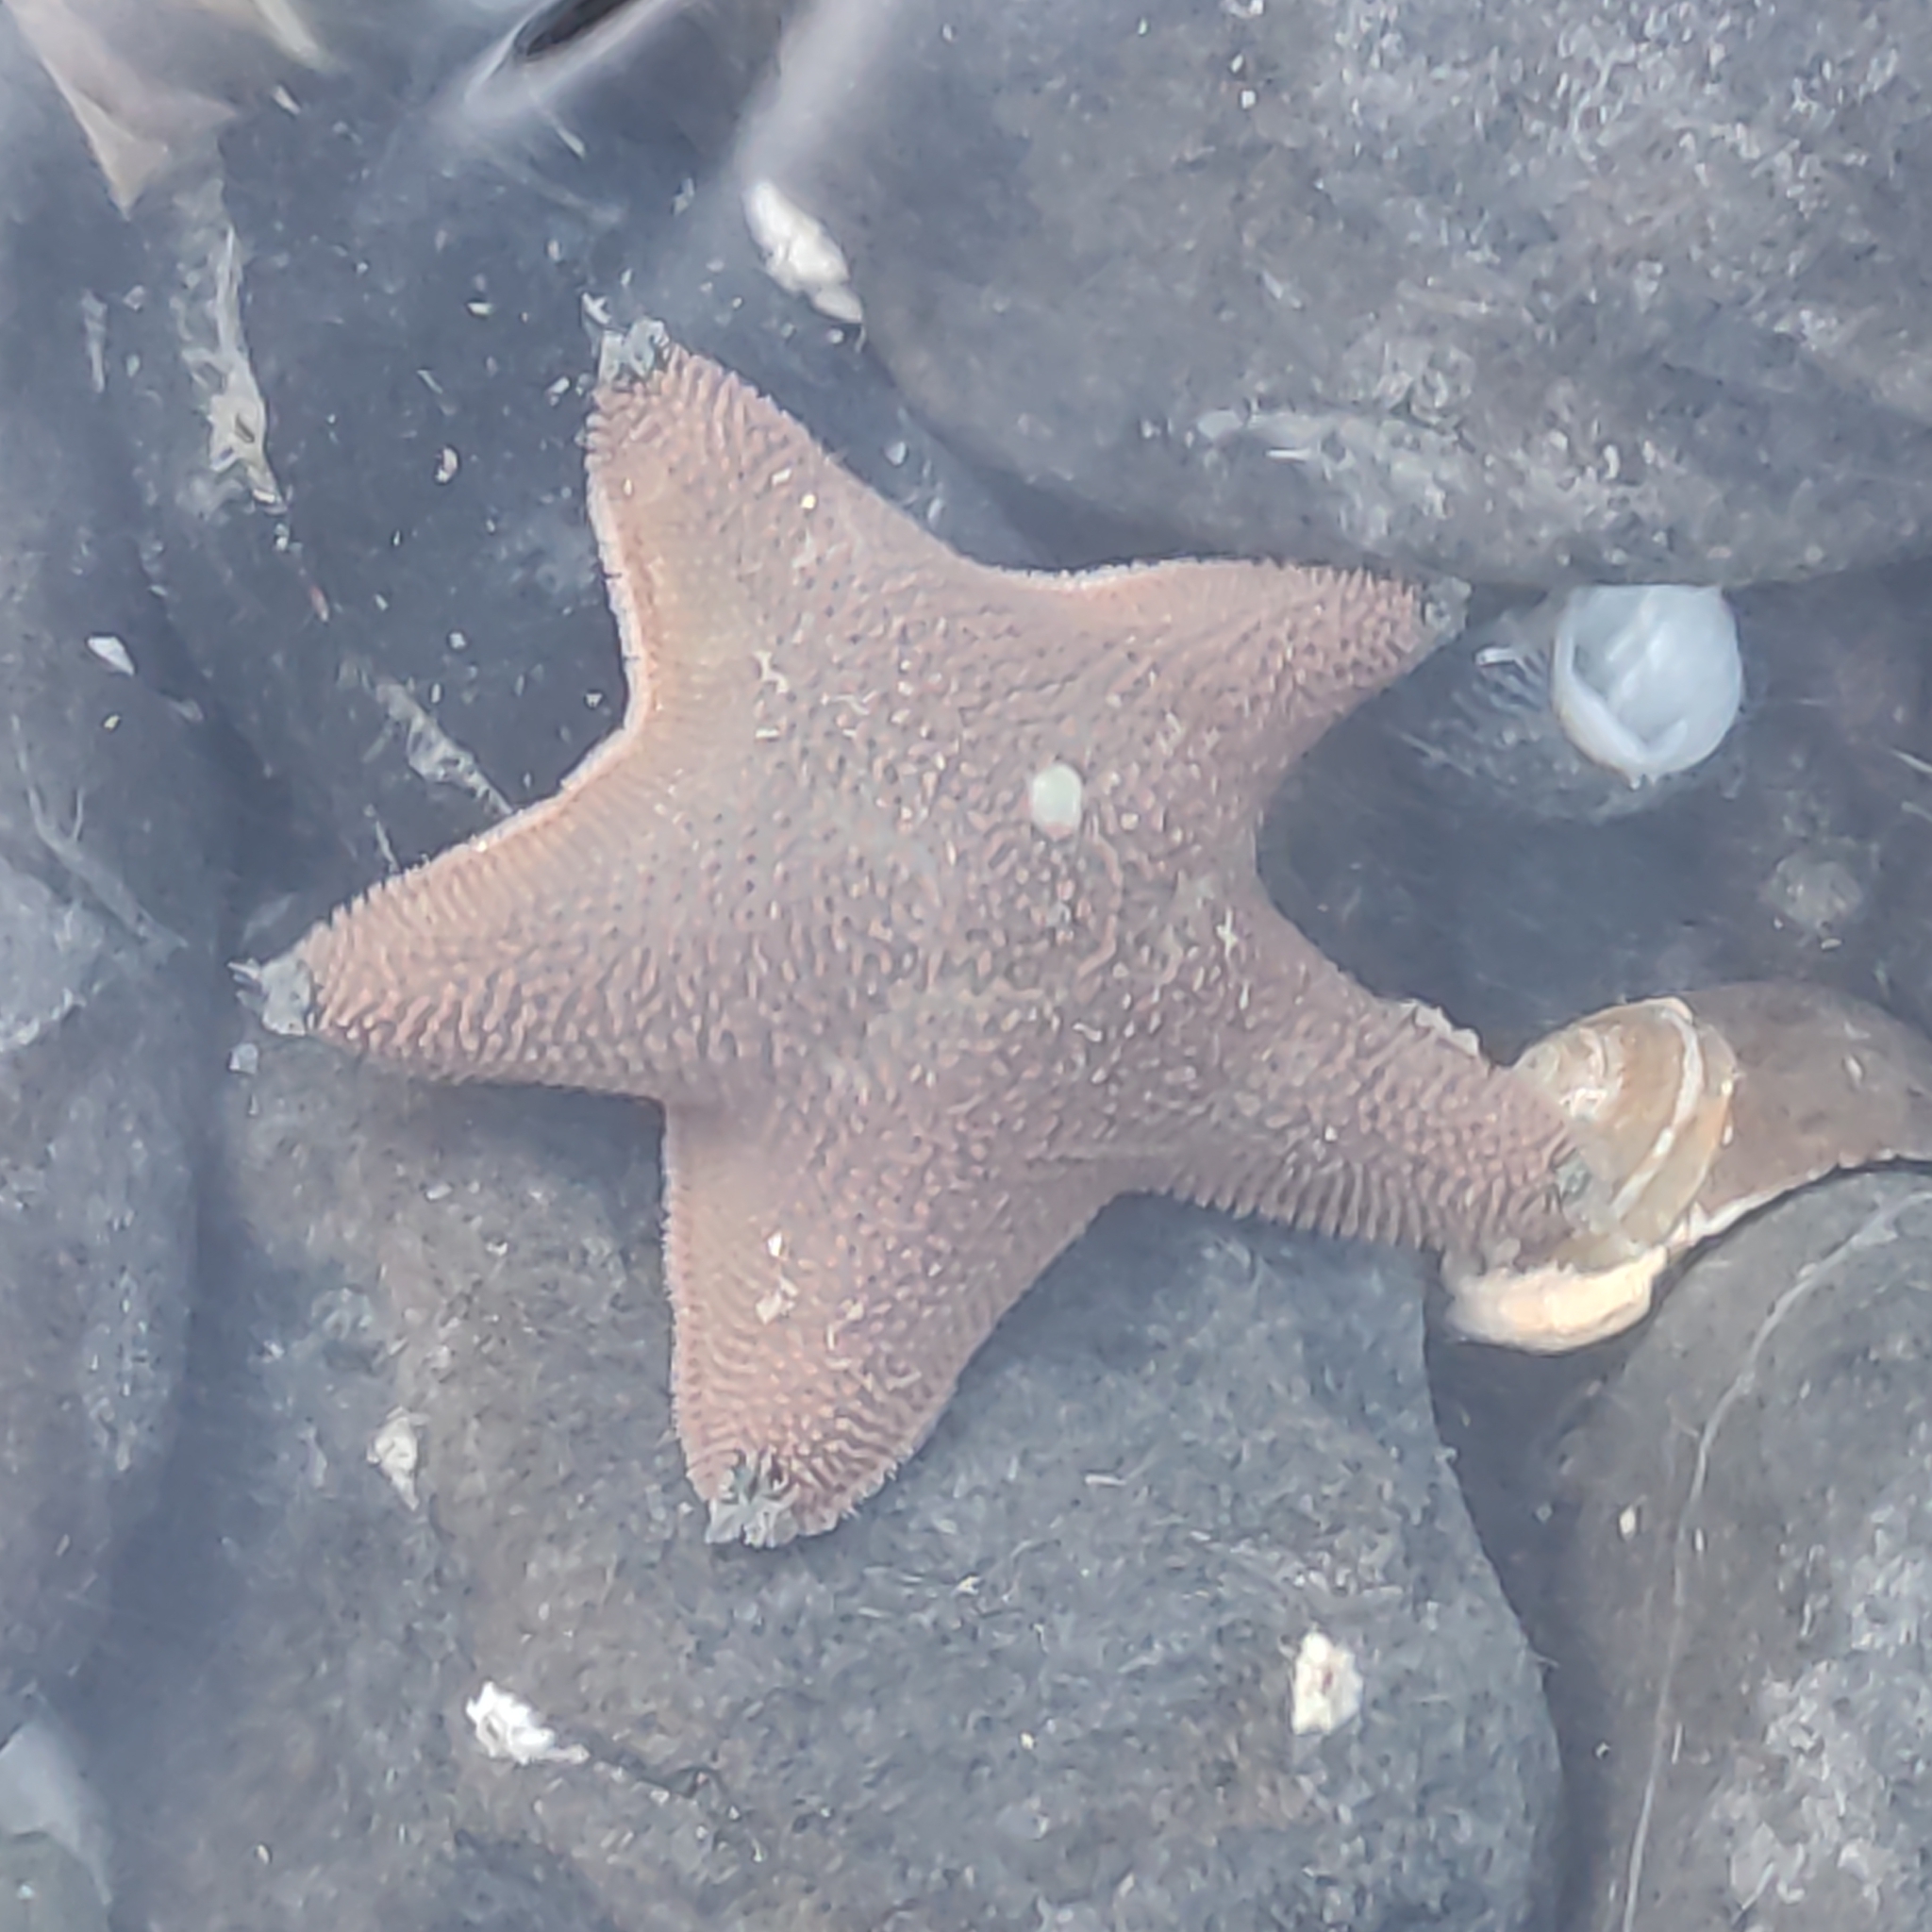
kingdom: Animalia
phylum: Echinodermata
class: Asteroidea
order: Valvatida
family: Asterinidae
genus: Patiriella
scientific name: Patiriella regularis
